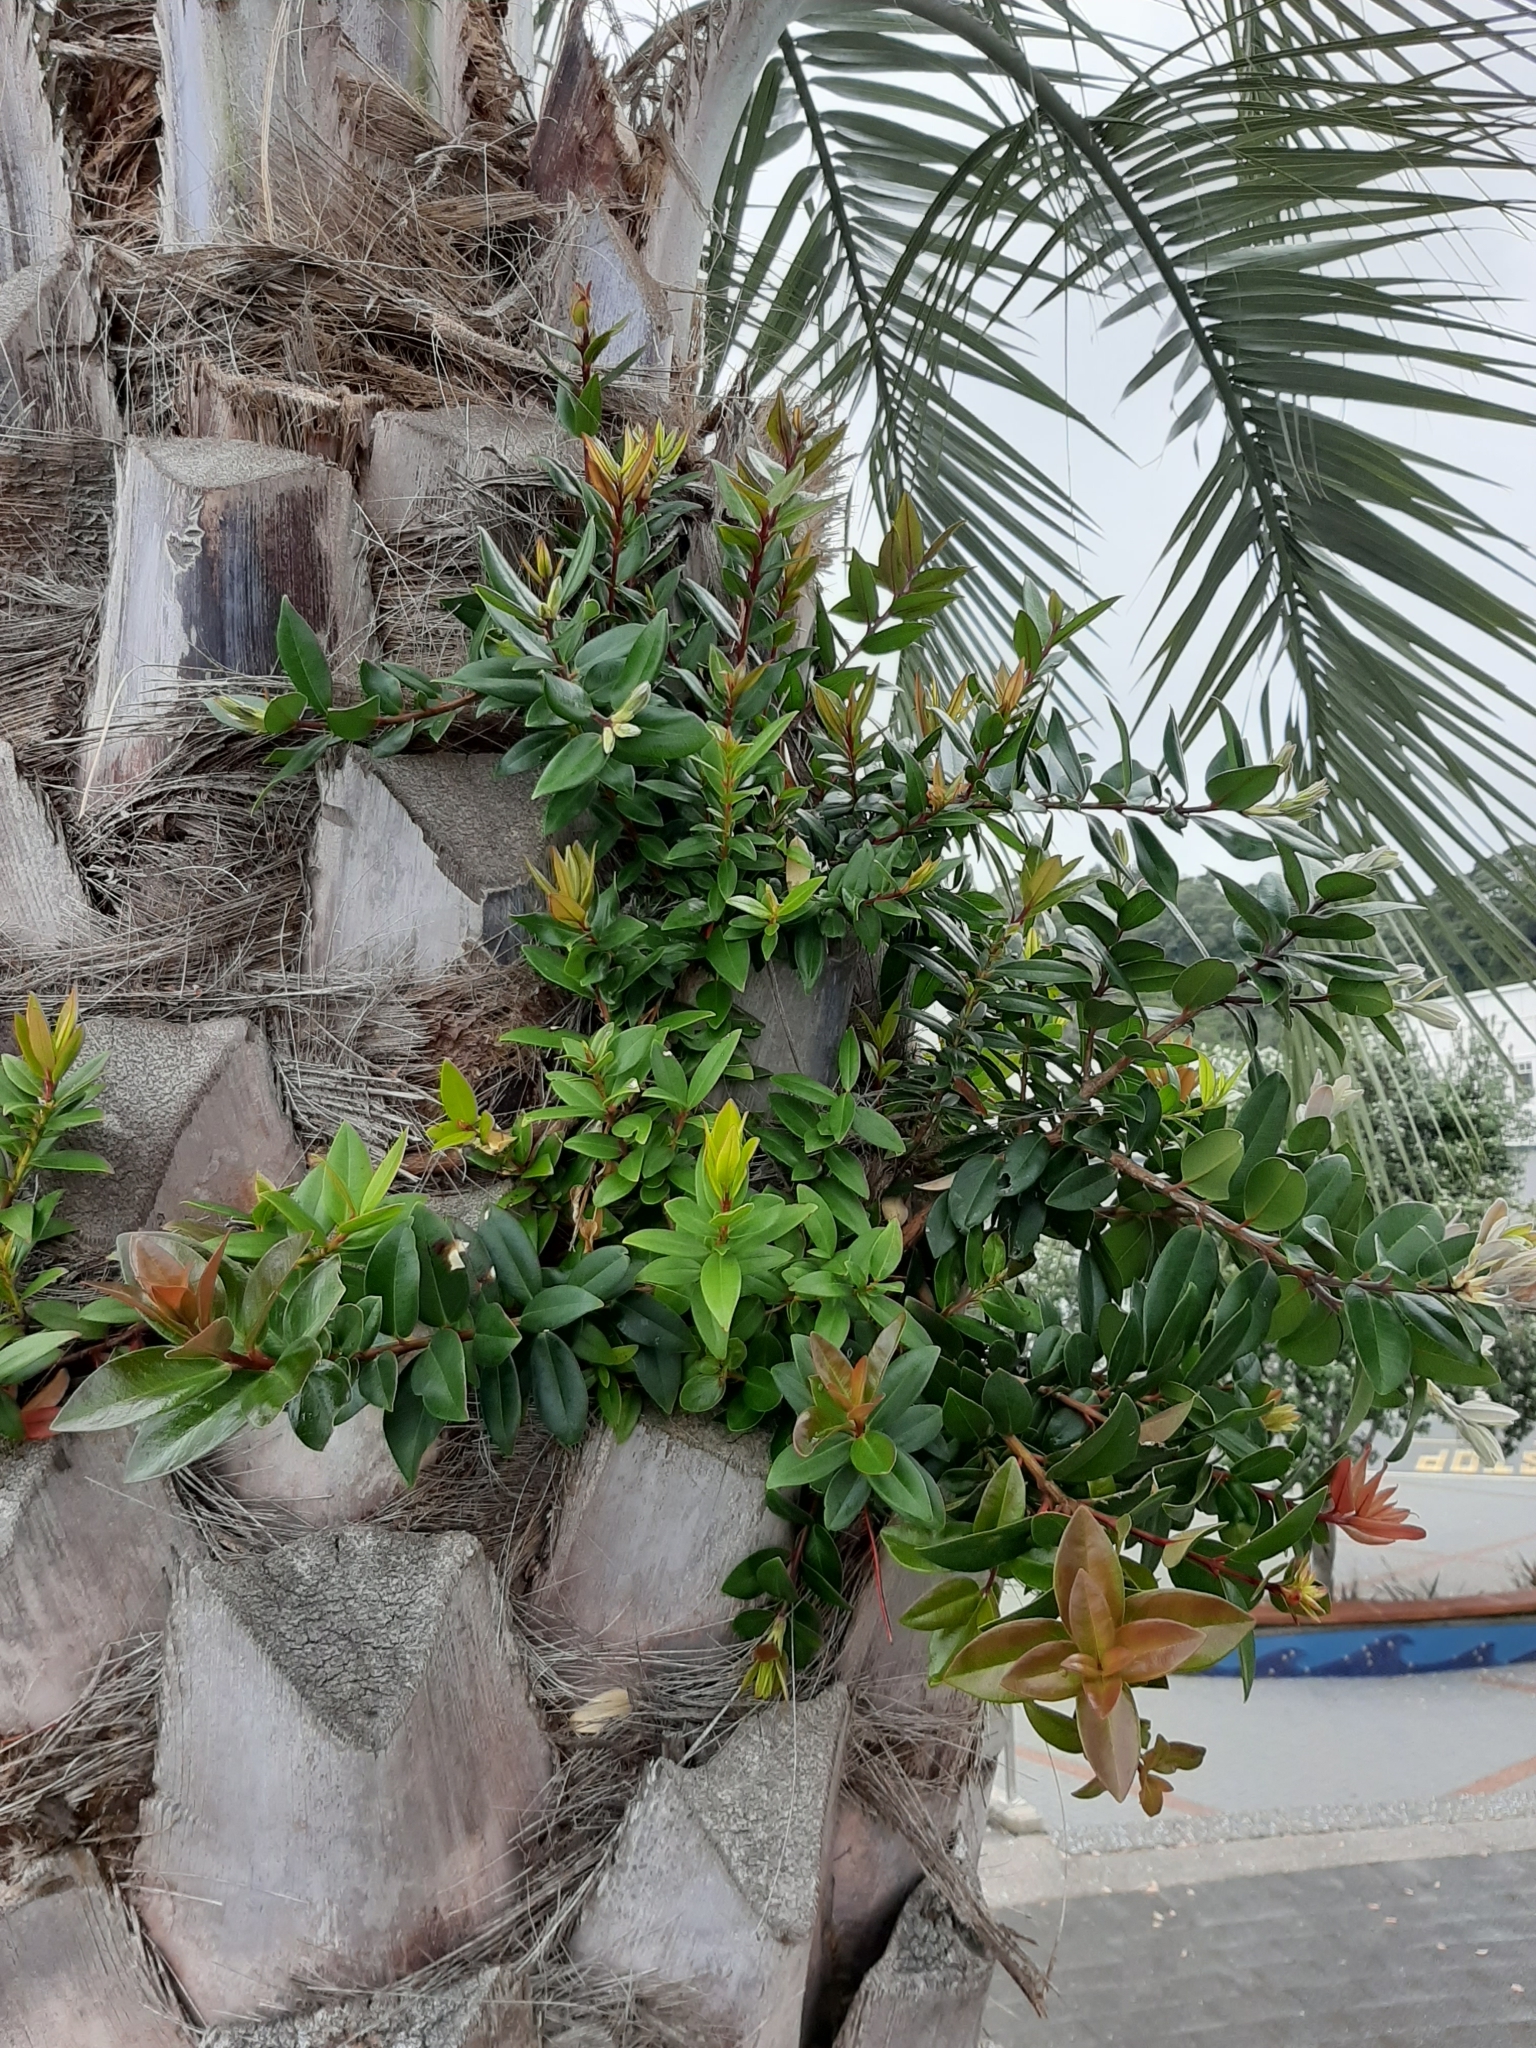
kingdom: Plantae
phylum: Tracheophyta
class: Magnoliopsida
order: Myrtales
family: Myrtaceae
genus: Metrosideros
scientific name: Metrosideros excelsa
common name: New zealand christmastree
